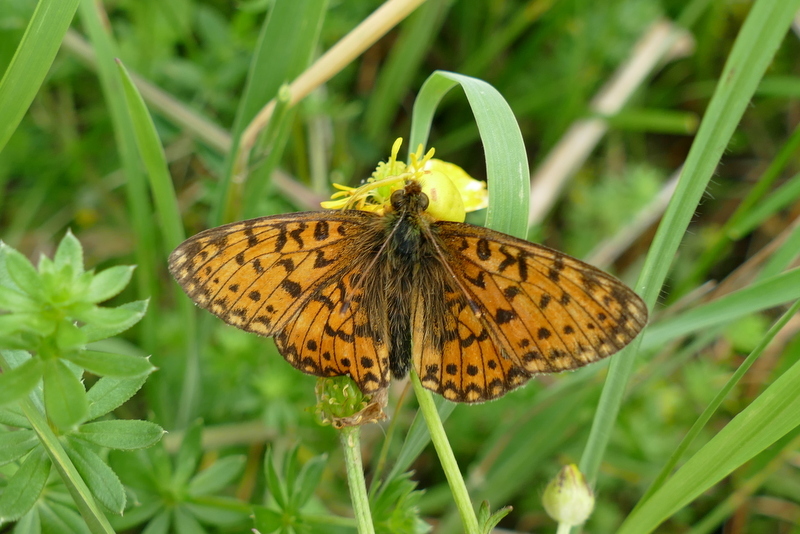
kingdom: Animalia
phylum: Arthropoda
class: Insecta
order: Lepidoptera
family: Nymphalidae
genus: Boloria
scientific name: Boloria selene
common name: Small pearl-bordered fritillary
